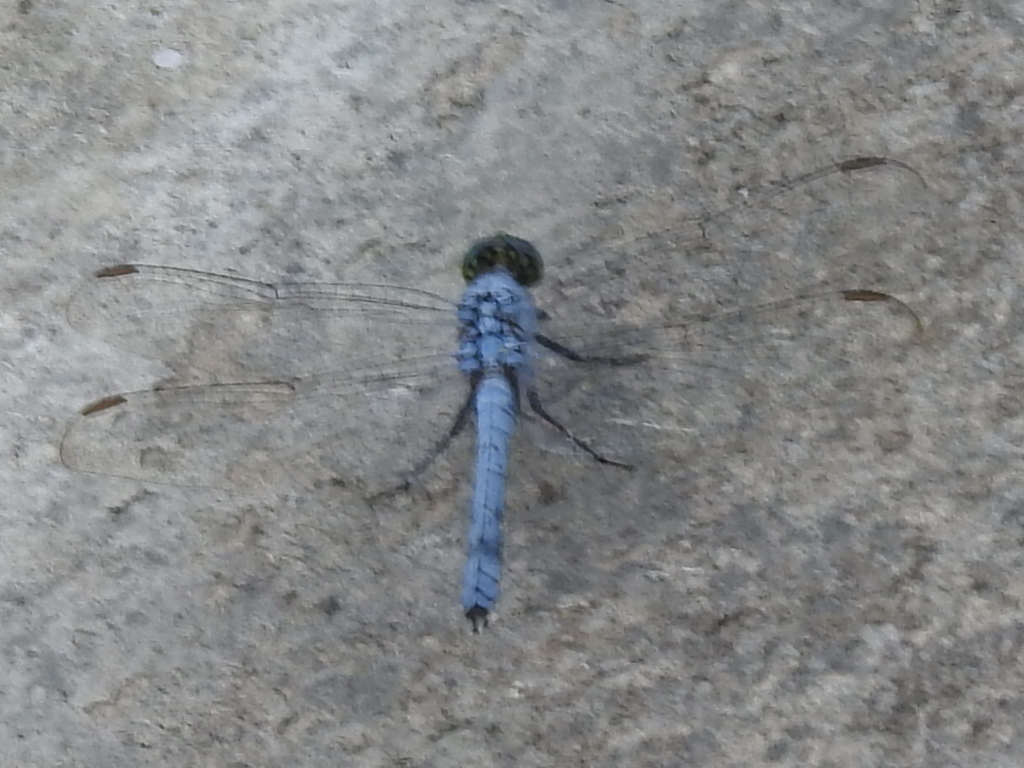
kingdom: Animalia
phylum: Arthropoda
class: Insecta
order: Odonata
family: Libellulidae
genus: Erythemis
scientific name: Erythemis simplicicollis
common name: Eastern pondhawk
